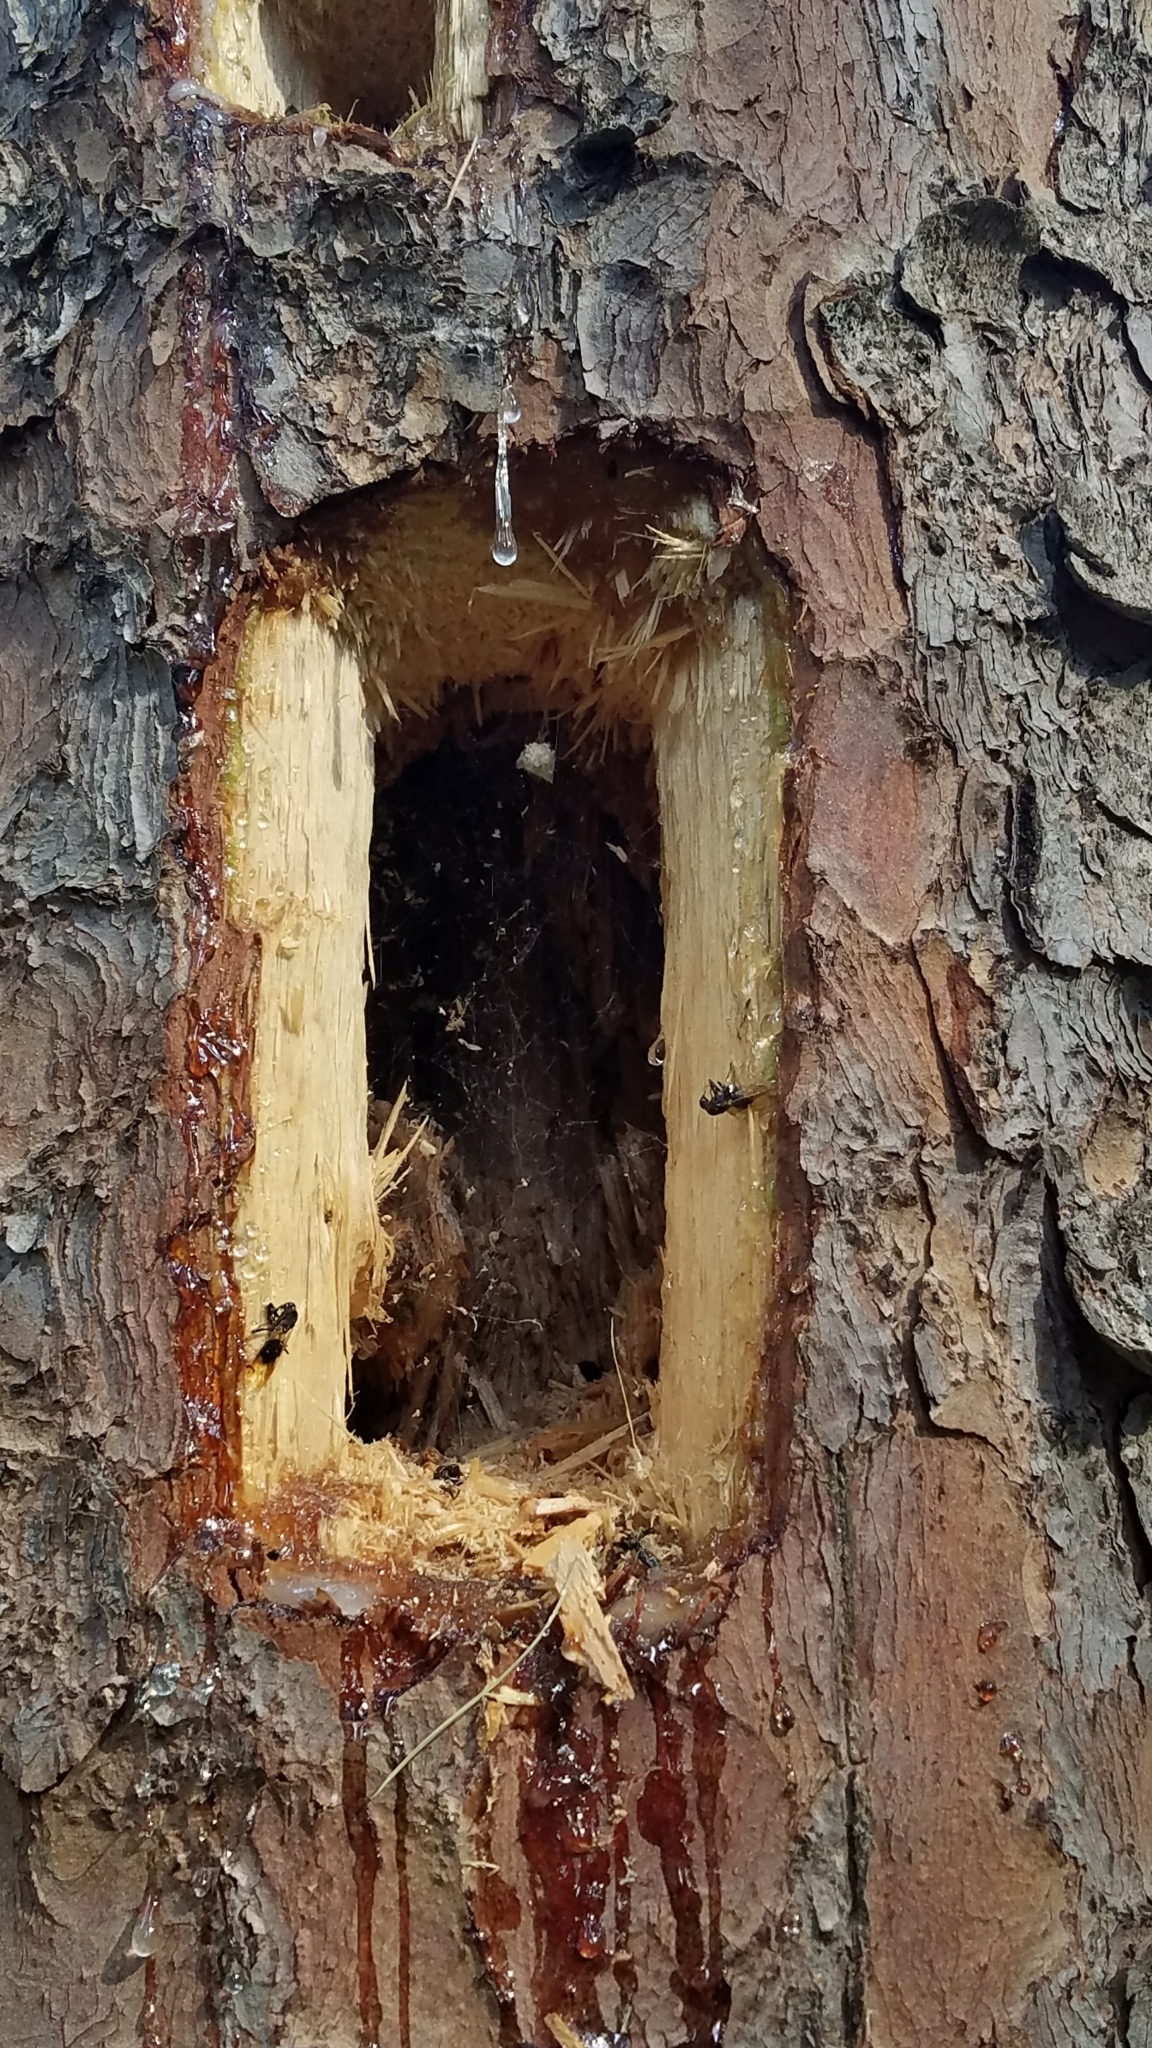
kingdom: Animalia
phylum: Chordata
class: Aves
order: Piciformes
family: Picidae
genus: Dryocopus
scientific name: Dryocopus pileatus
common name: Pileated woodpecker
